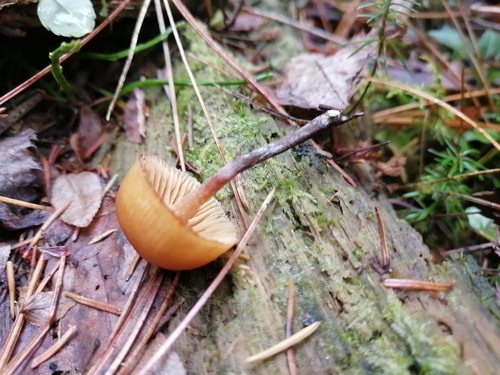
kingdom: Fungi
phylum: Basidiomycota
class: Agaricomycetes
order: Agaricales
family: Hymenogastraceae
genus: Galerina
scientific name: Galerina marginata
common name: Funeral bell
